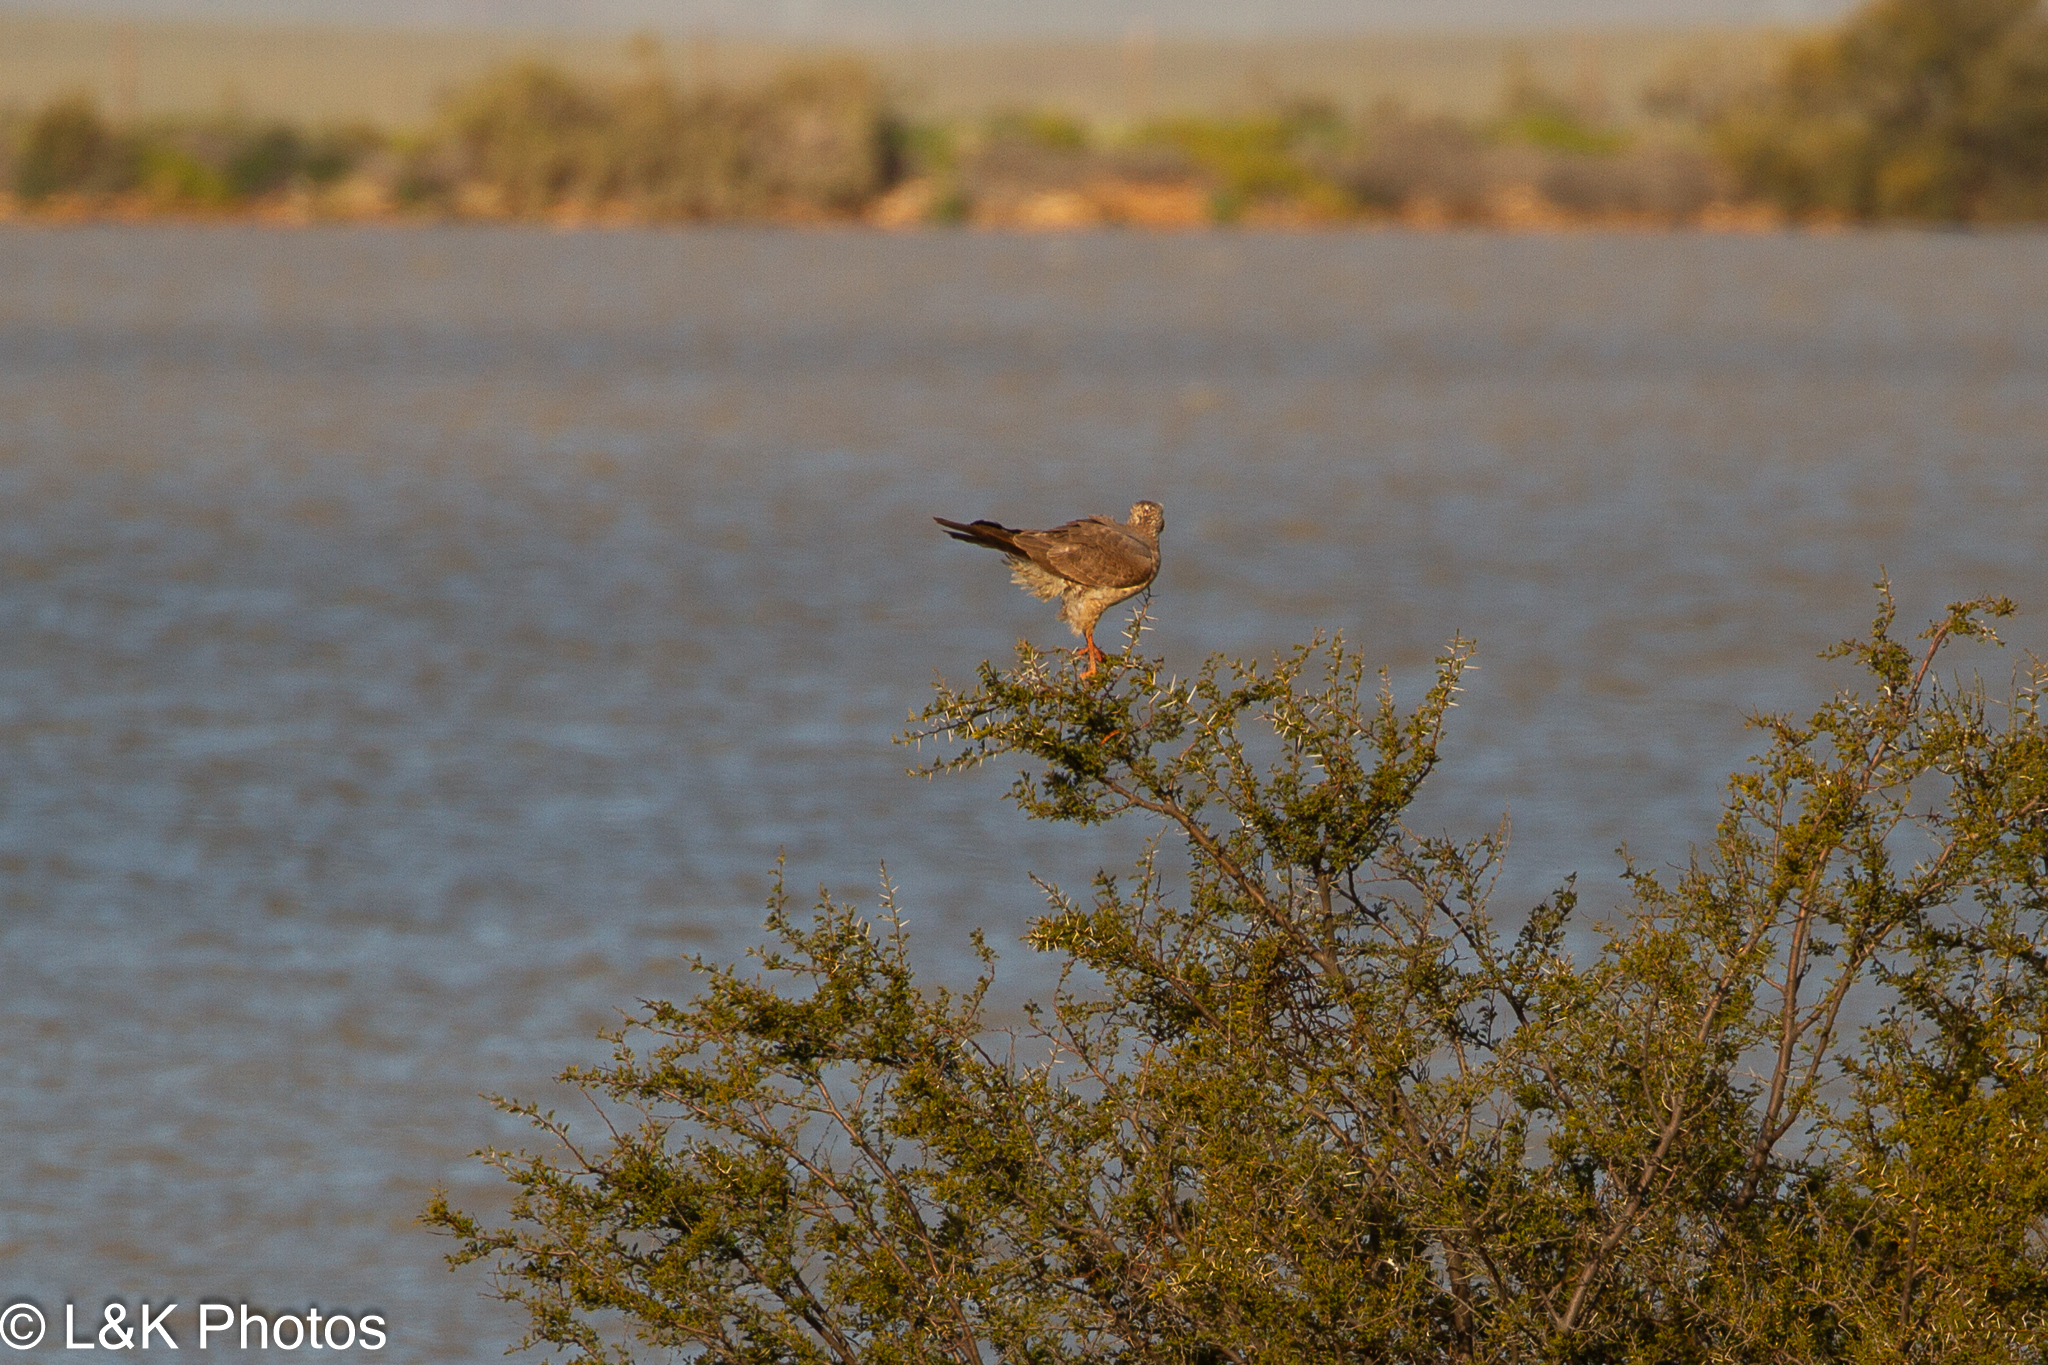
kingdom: Animalia
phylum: Chordata
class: Aves
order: Accipitriformes
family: Accipitridae
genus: Melierax
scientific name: Melierax canorus
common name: Pale chanting-goshawk
